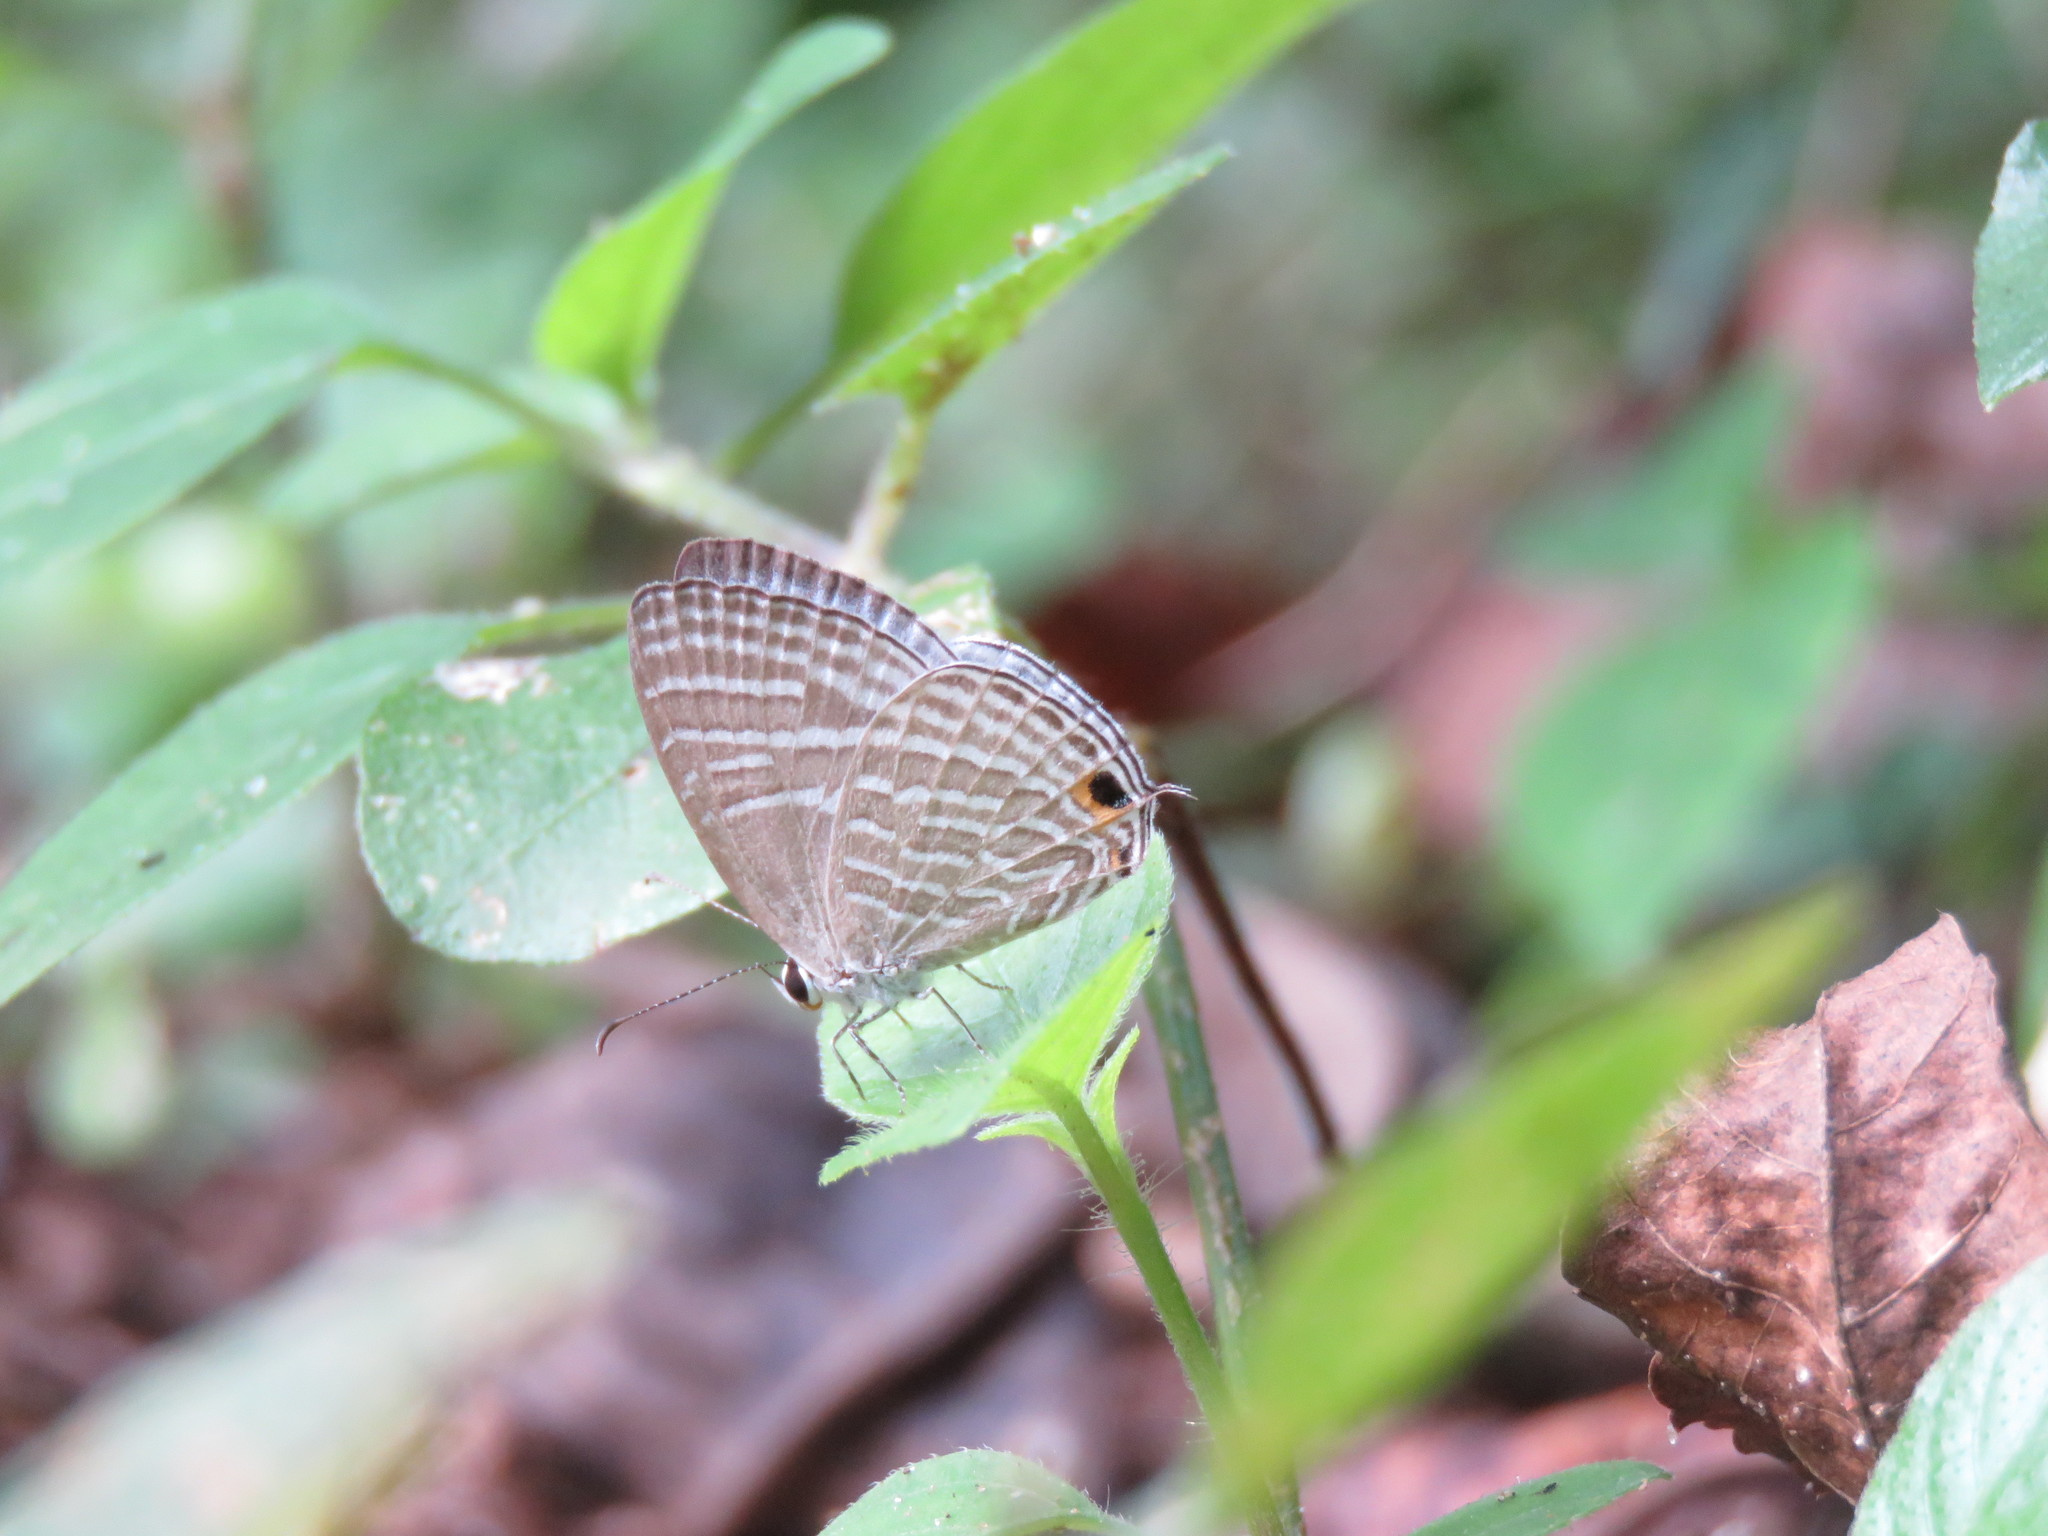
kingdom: Animalia
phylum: Arthropoda
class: Insecta
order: Lepidoptera
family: Lycaenidae
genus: Jamides
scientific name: Jamides celeno
